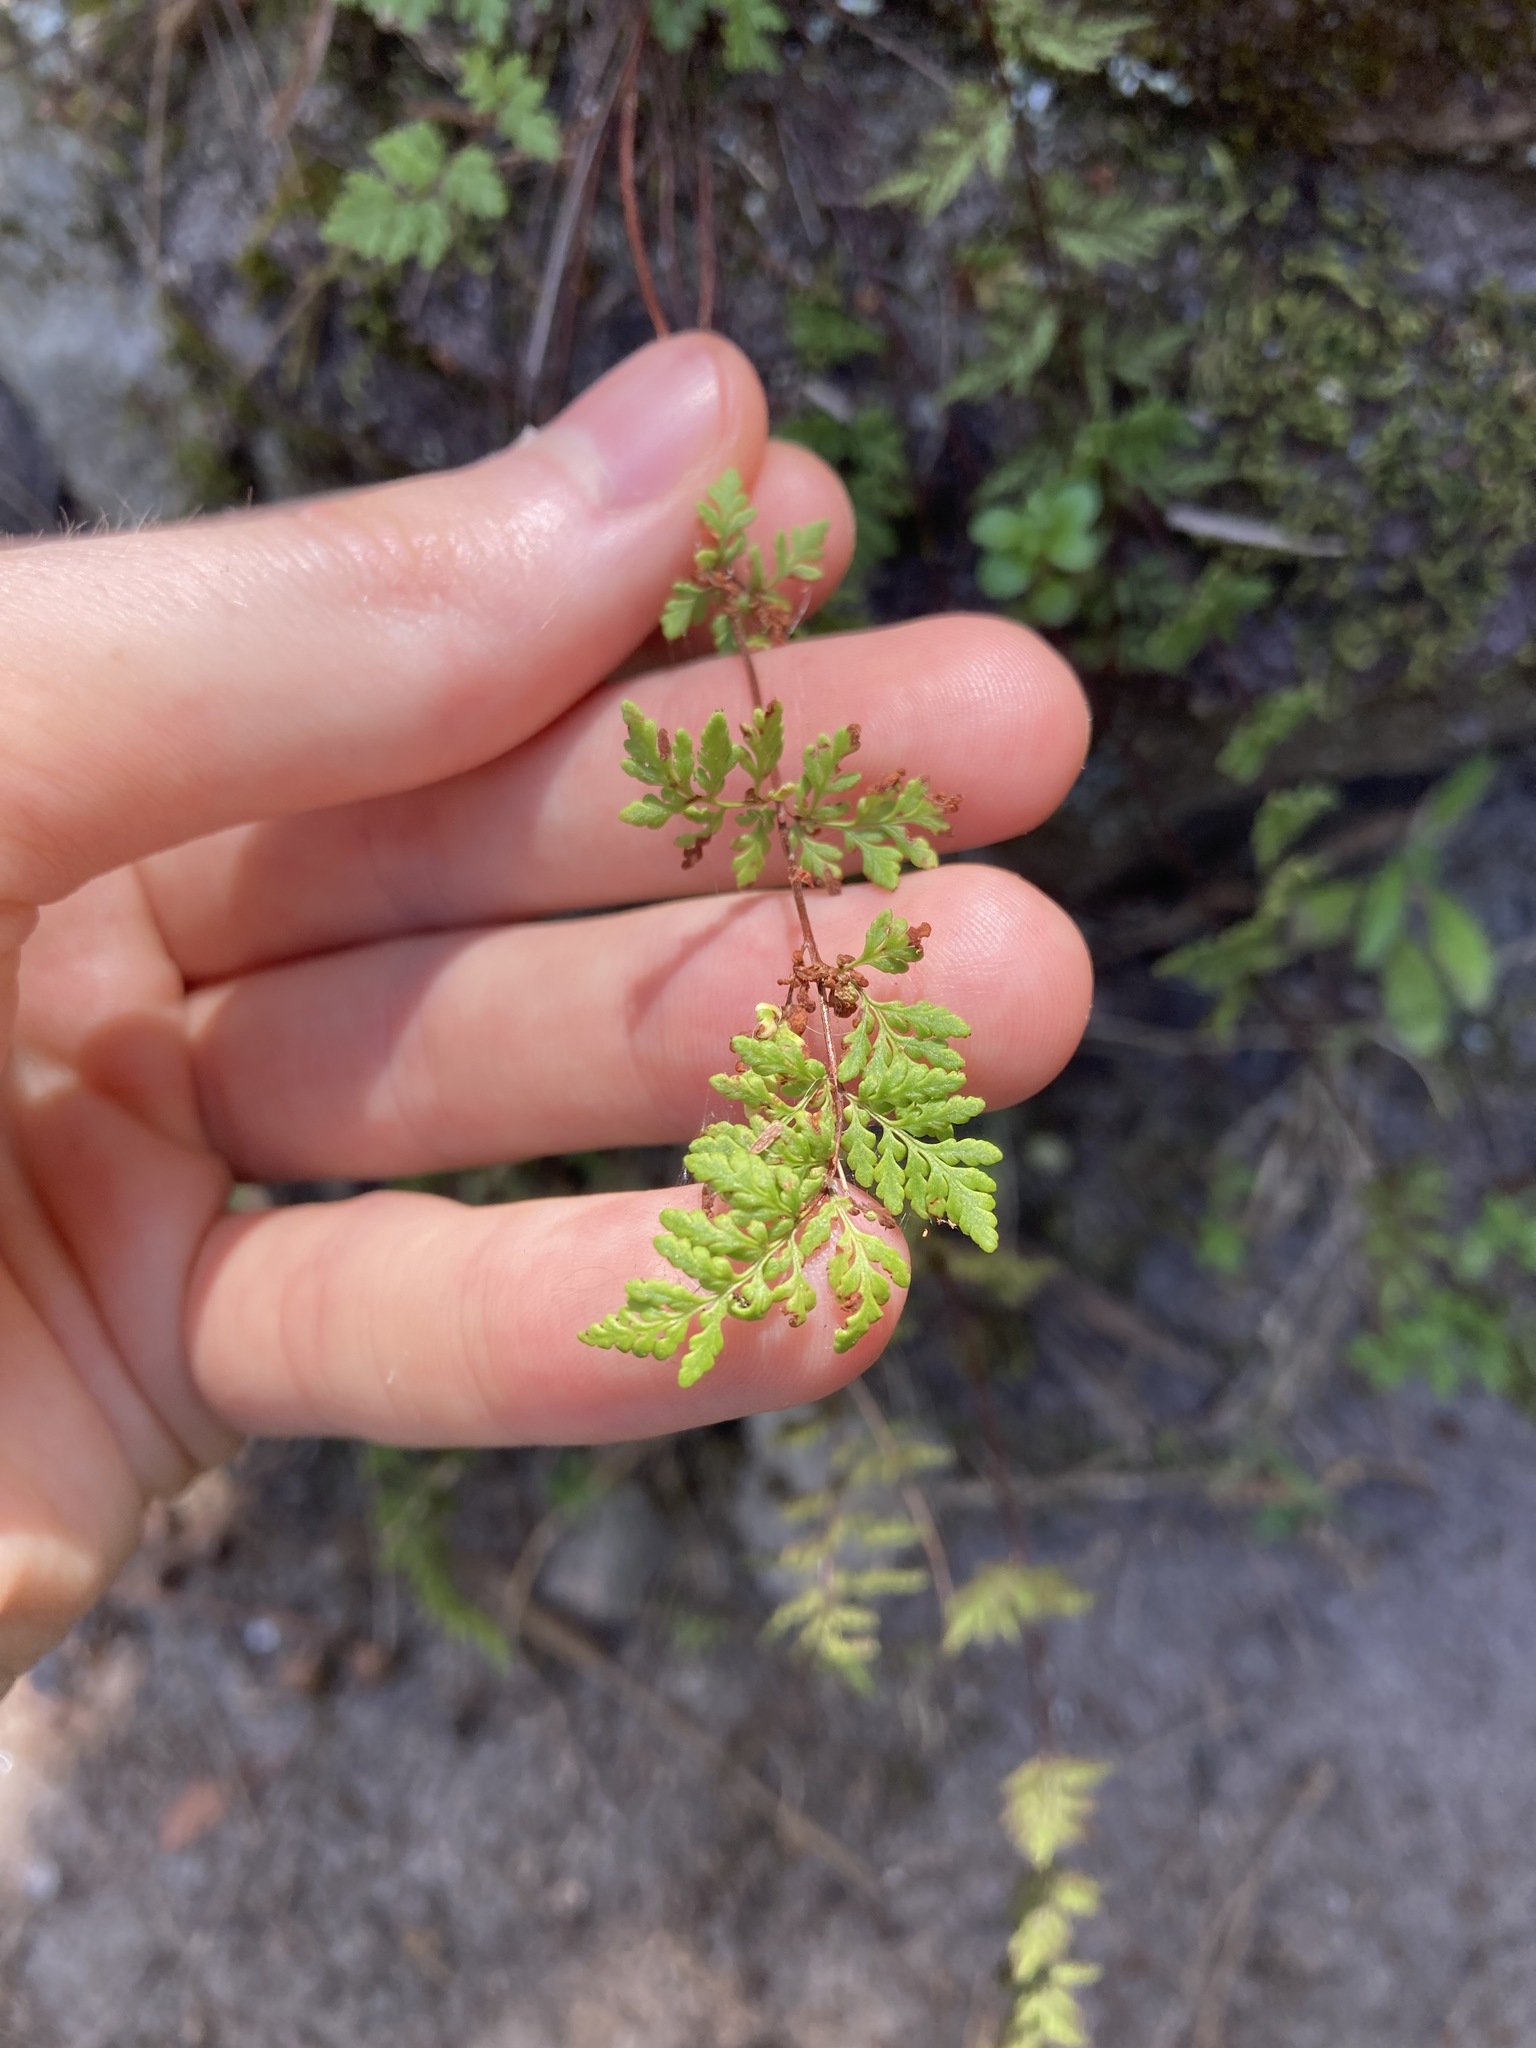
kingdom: Plantae
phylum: Tracheophyta
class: Polypodiopsida
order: Polypodiales
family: Pteridaceae
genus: Cheilanthes
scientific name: Cheilanthes sieberi
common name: Mulga fern
